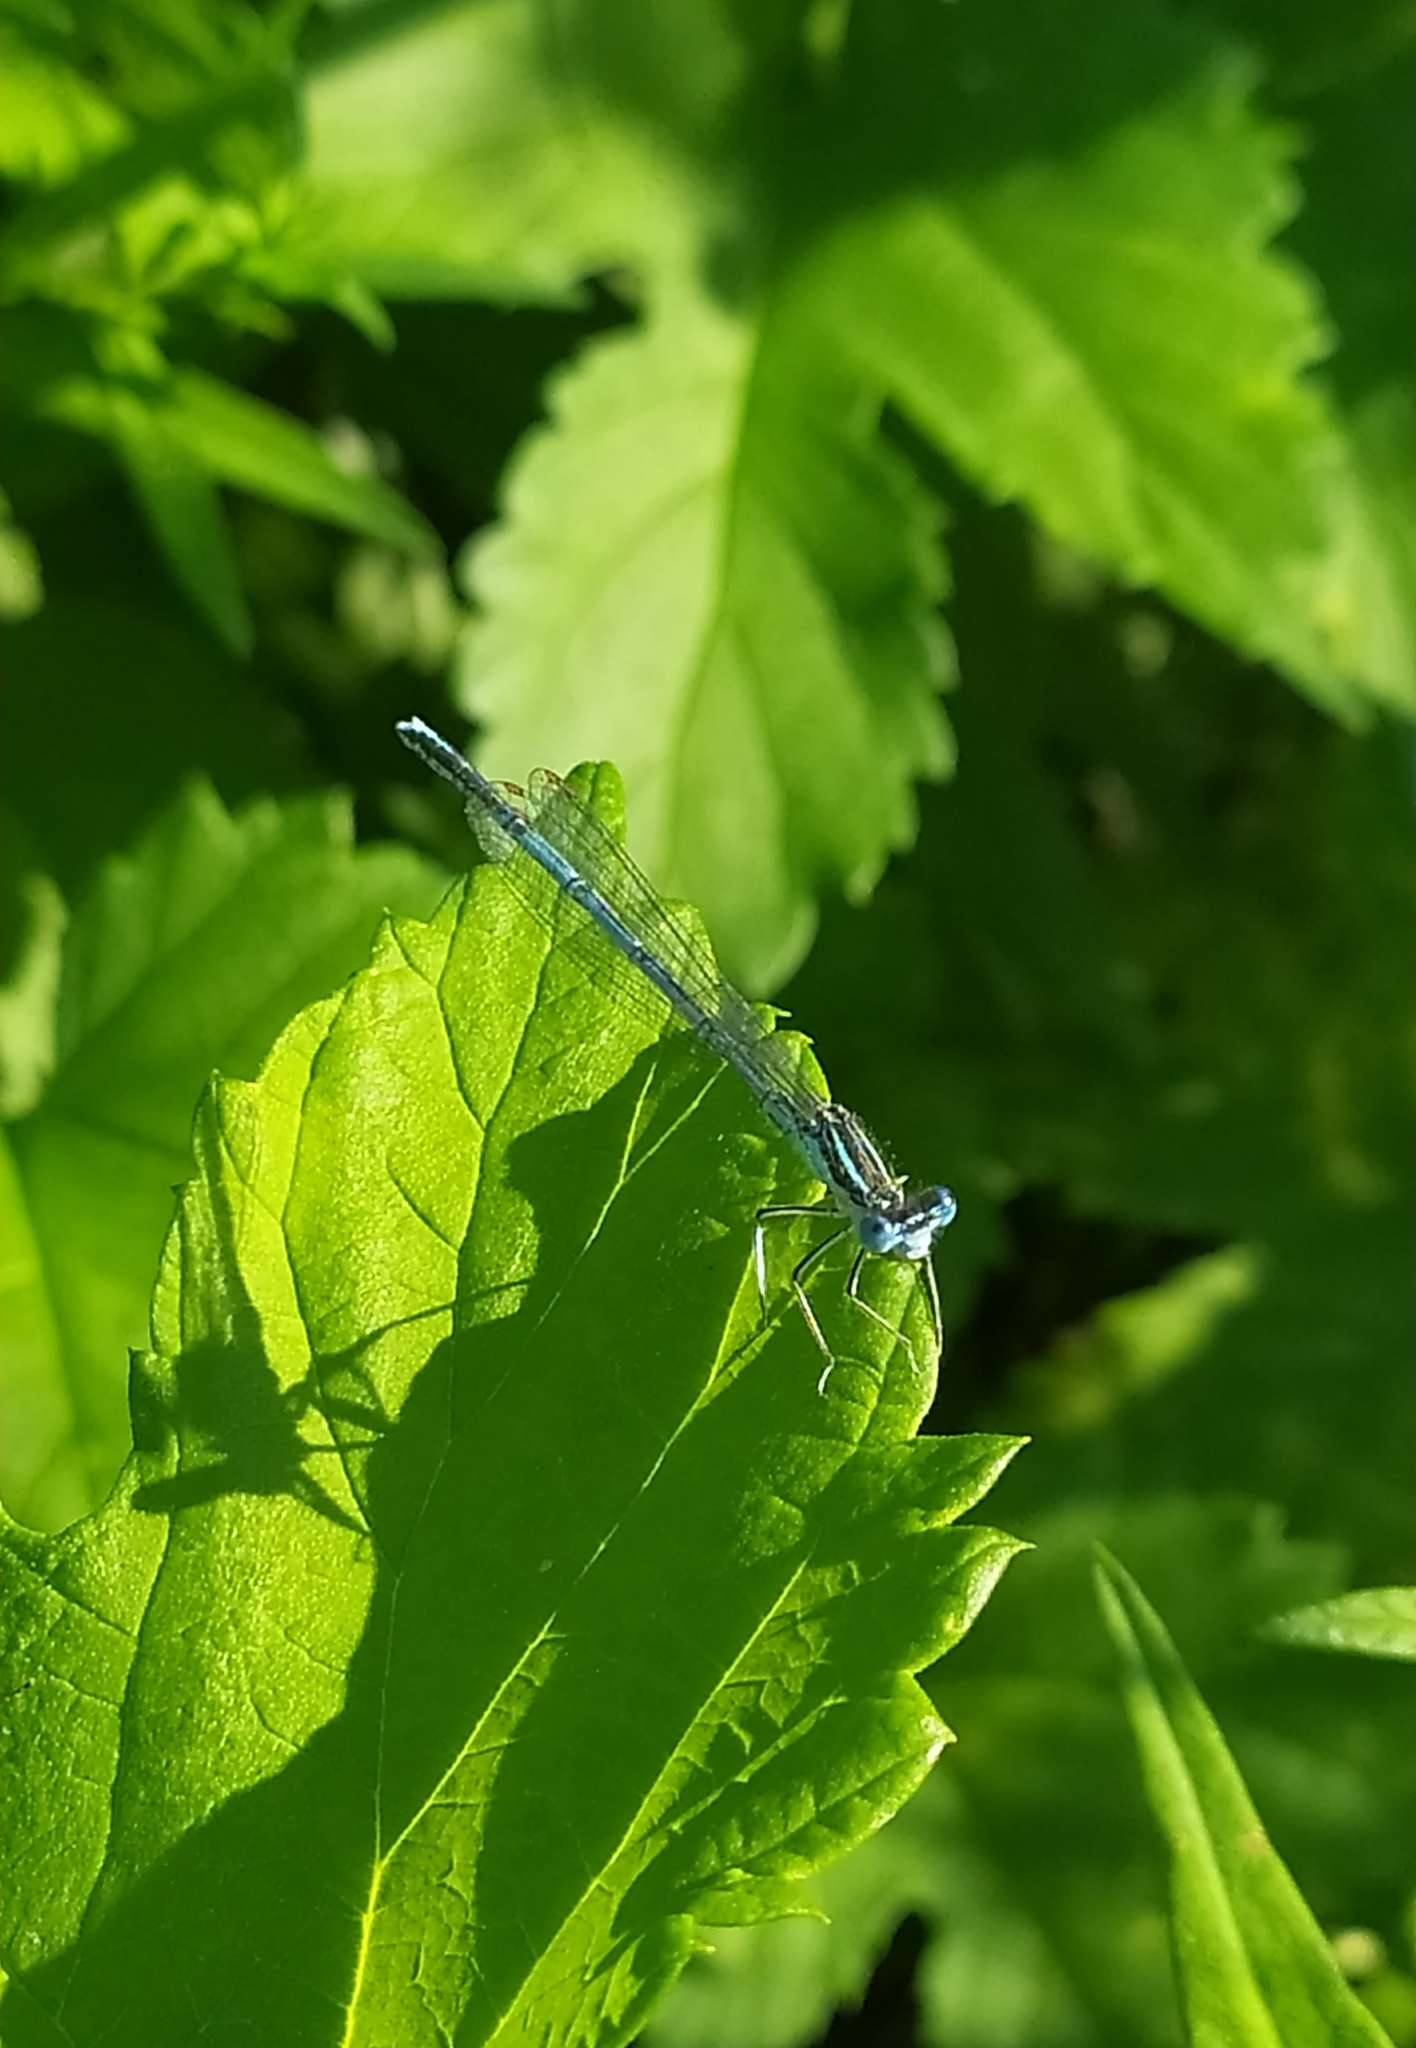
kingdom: Animalia
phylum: Arthropoda
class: Insecta
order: Odonata
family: Platycnemididae
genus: Platycnemis
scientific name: Platycnemis pennipes
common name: White-legged damselfly
